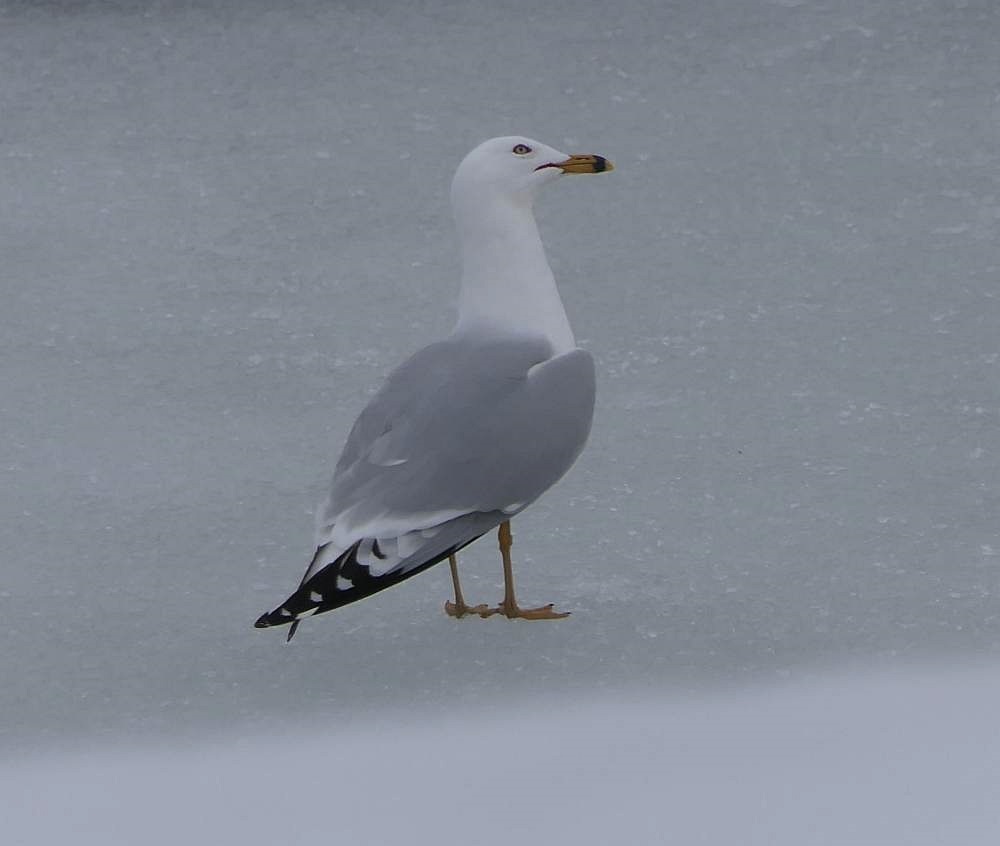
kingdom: Animalia
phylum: Chordata
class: Aves
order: Charadriiformes
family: Laridae
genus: Larus
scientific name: Larus delawarensis
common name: Ring-billed gull
